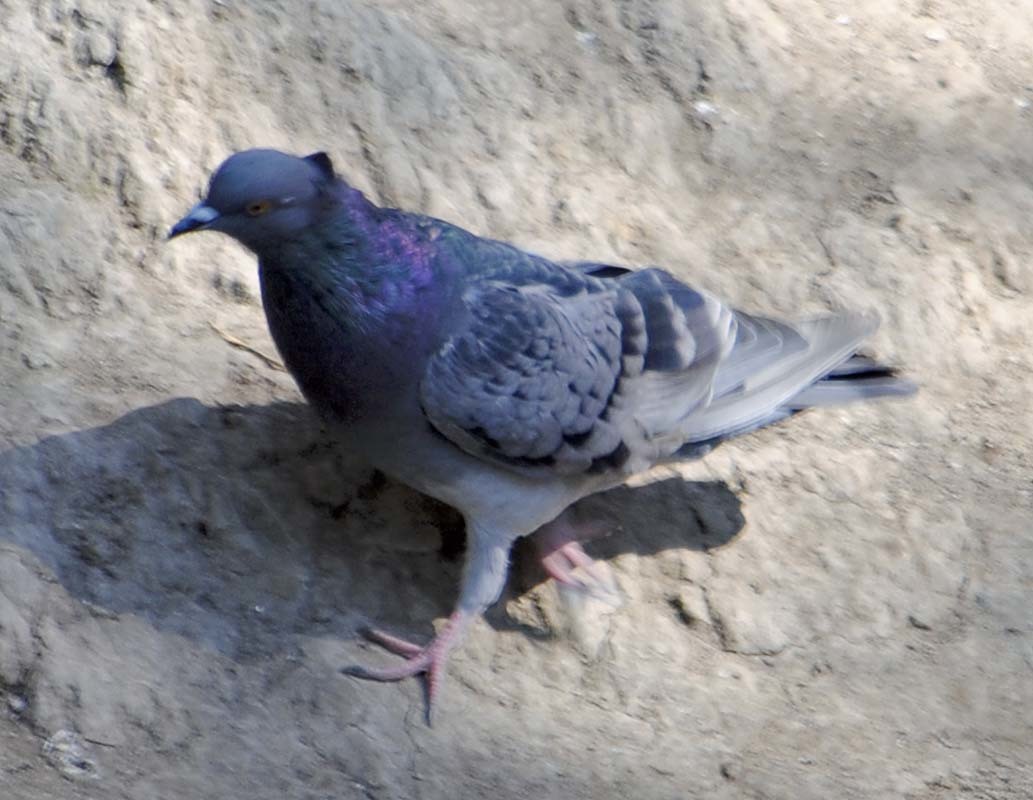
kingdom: Animalia
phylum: Chordata
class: Aves
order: Columbiformes
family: Columbidae
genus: Columba
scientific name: Columba livia
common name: Rock pigeon
